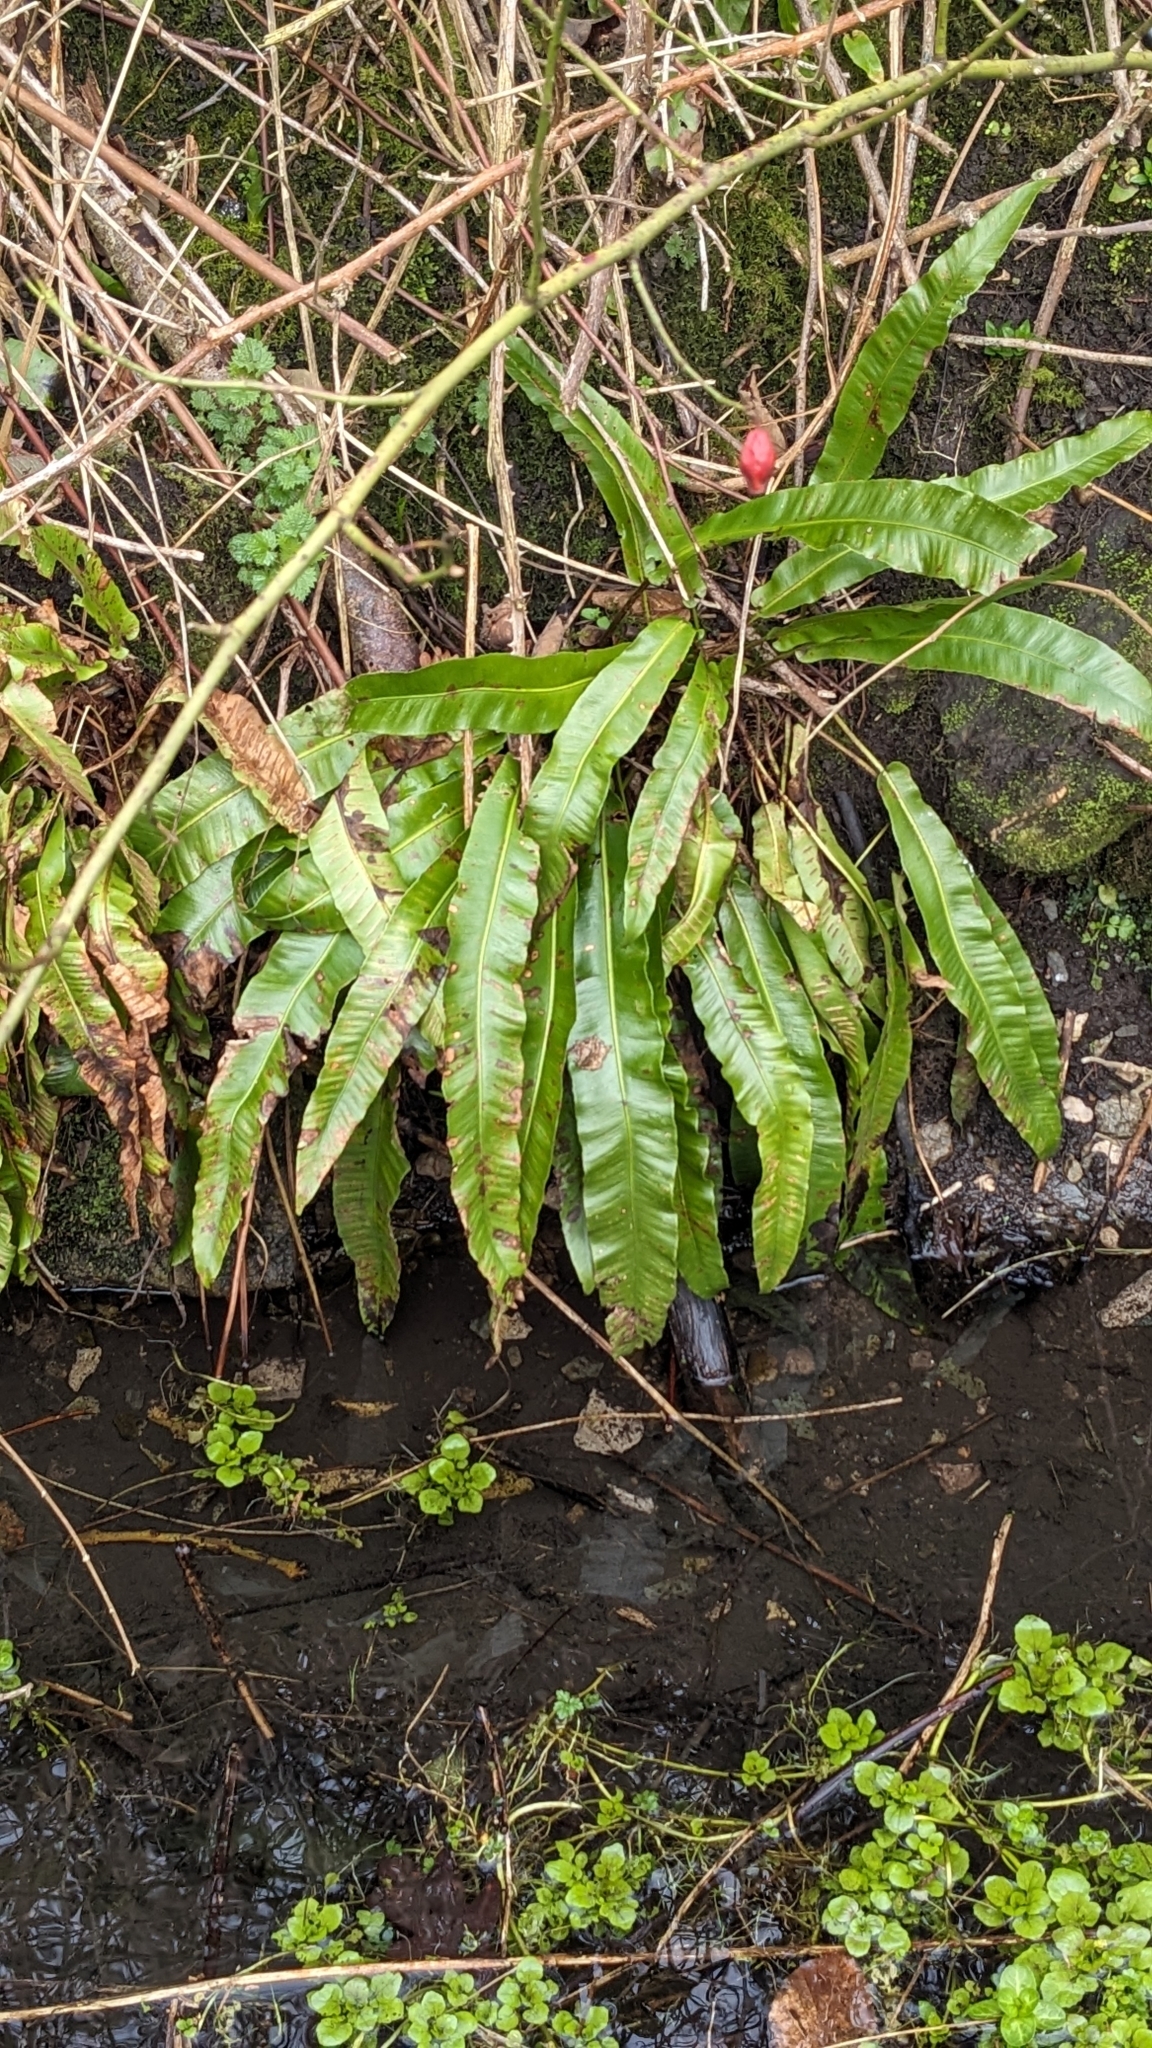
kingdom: Plantae
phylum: Tracheophyta
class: Polypodiopsida
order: Polypodiales
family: Aspleniaceae
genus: Asplenium
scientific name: Asplenium scolopendrium
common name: Hart's-tongue fern
